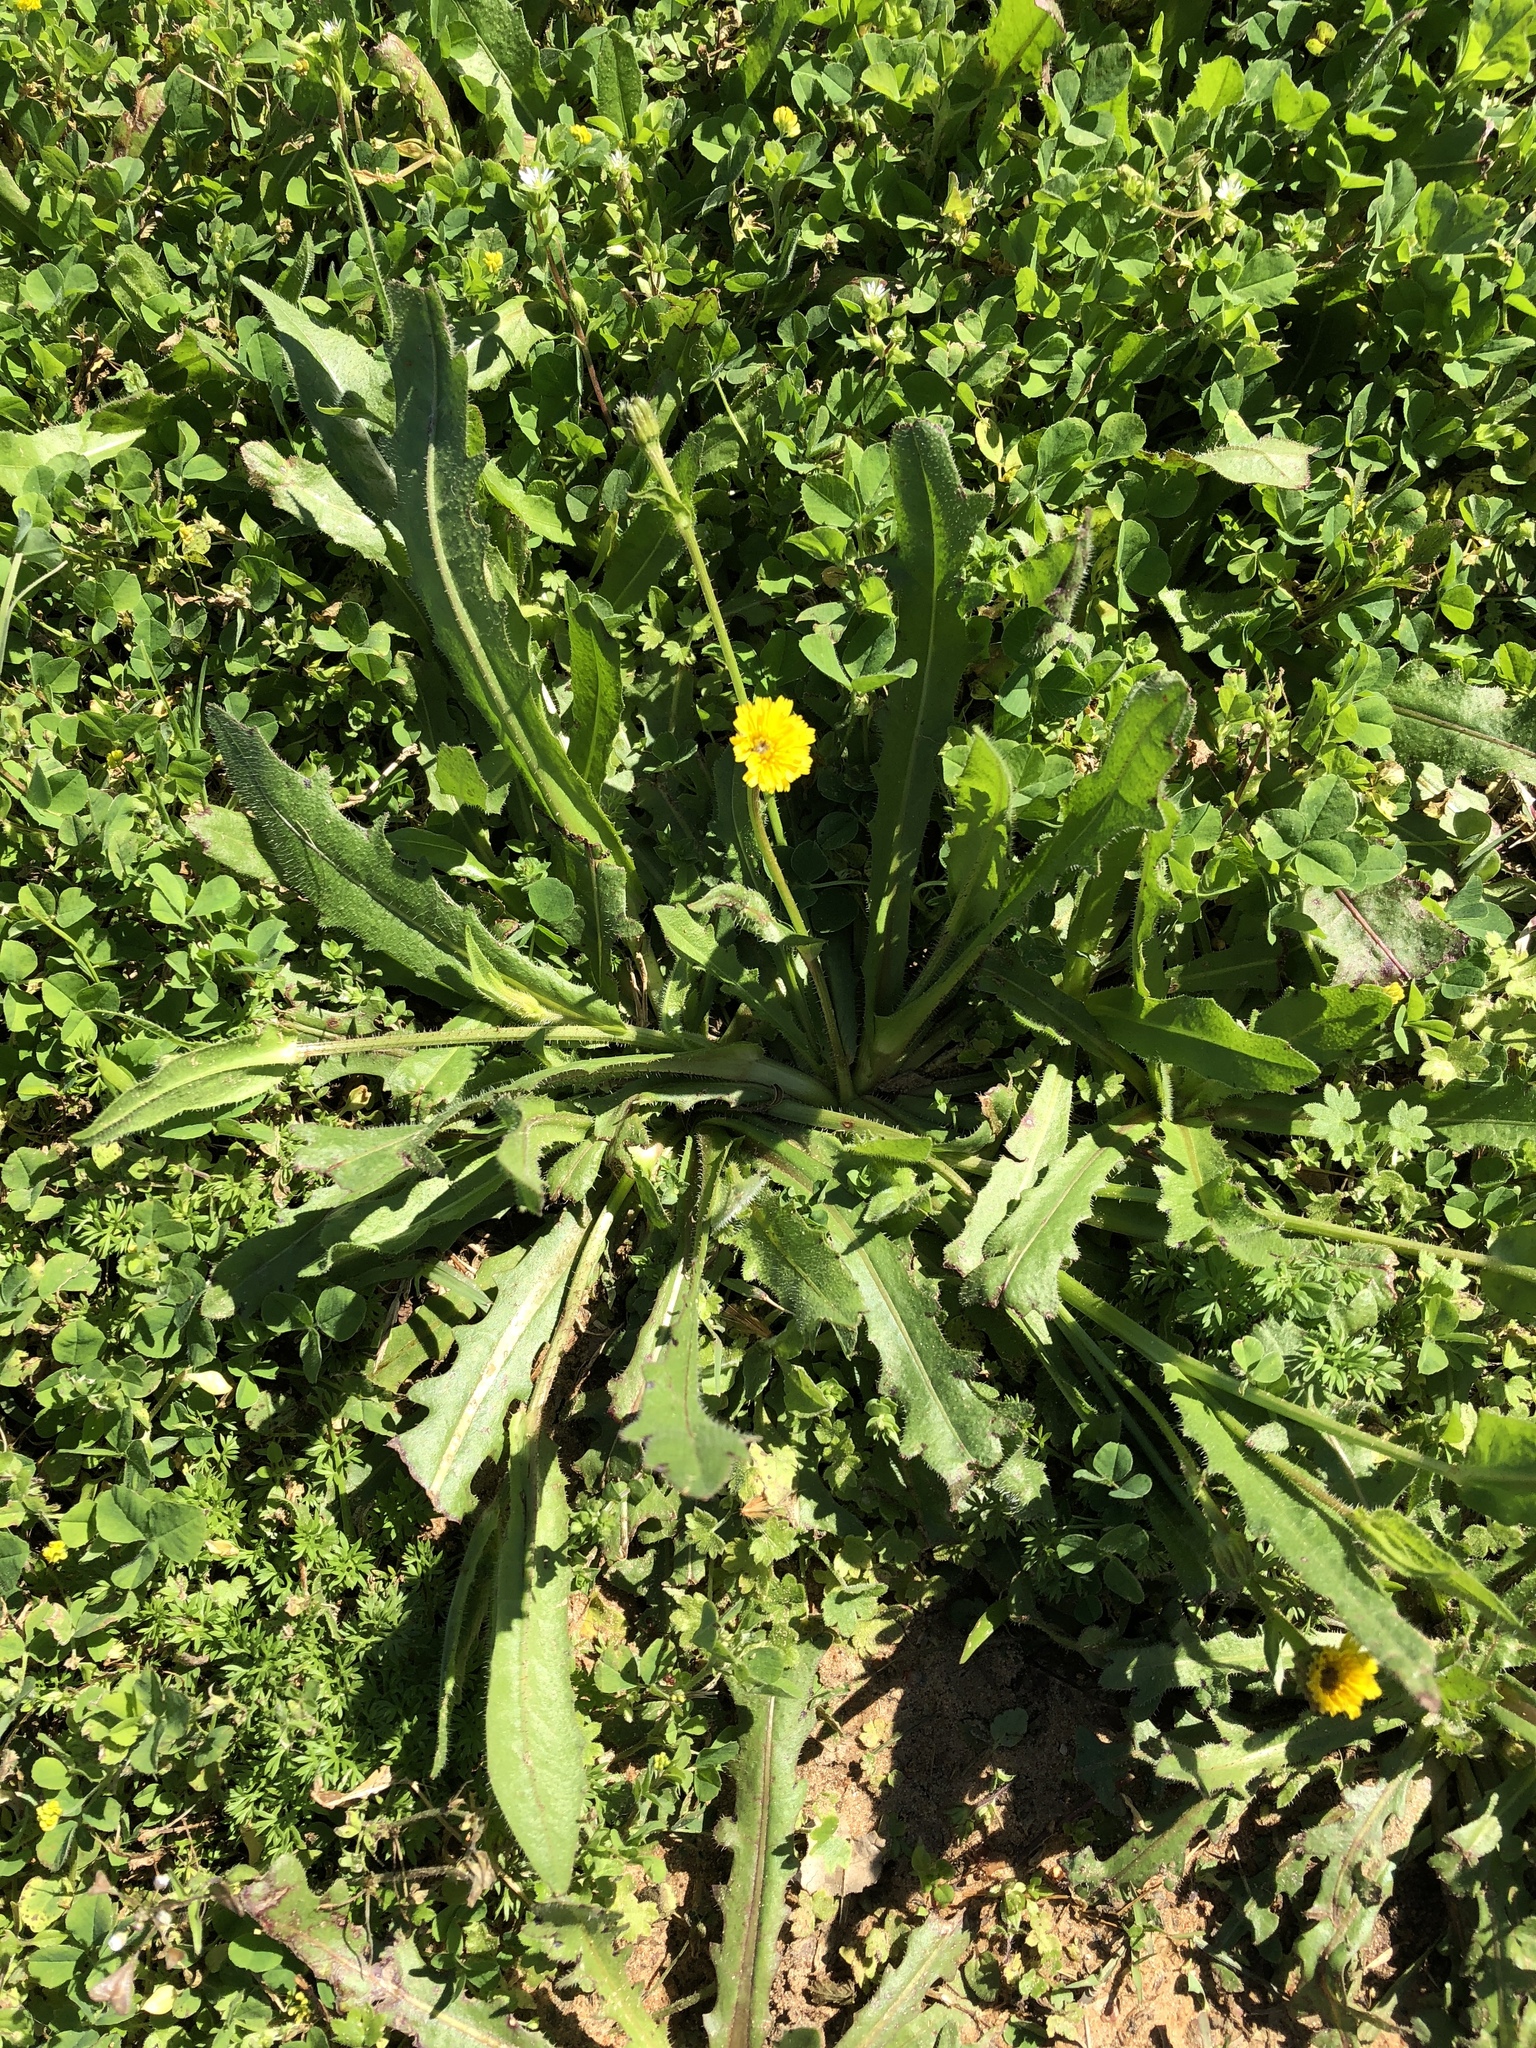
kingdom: Plantae
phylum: Tracheophyta
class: Magnoliopsida
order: Asterales
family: Asteraceae
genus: Hedypnois
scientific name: Hedypnois rhagadioloides
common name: Cretan weed
